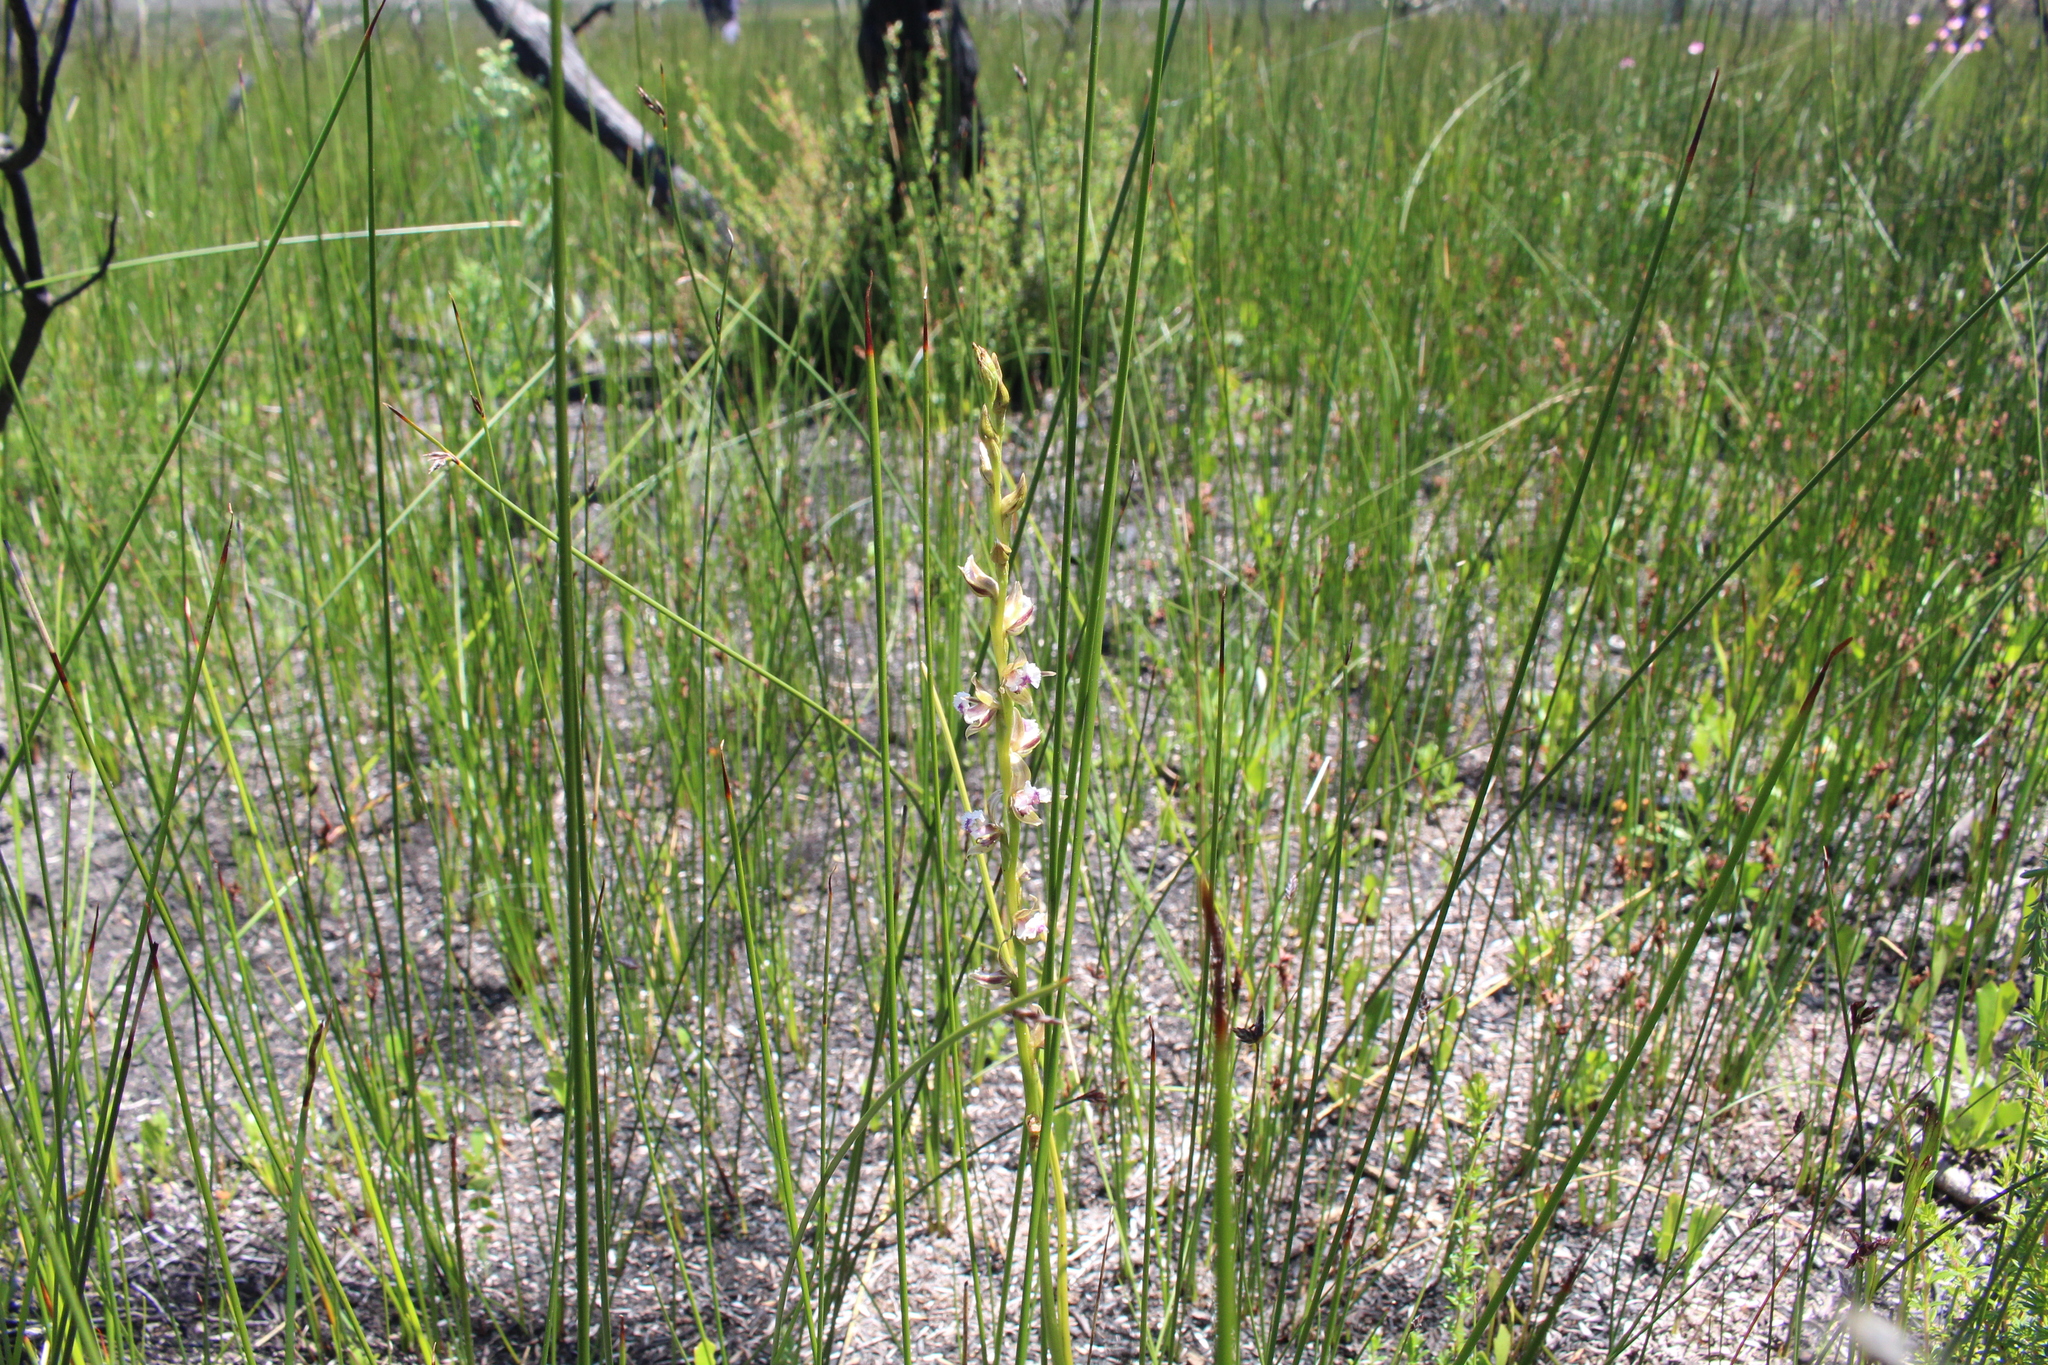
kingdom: Plantae
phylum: Tracheophyta
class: Liliopsida
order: Asparagales
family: Orchidaceae
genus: Prasophyllum
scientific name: Prasophyllum fimbria
